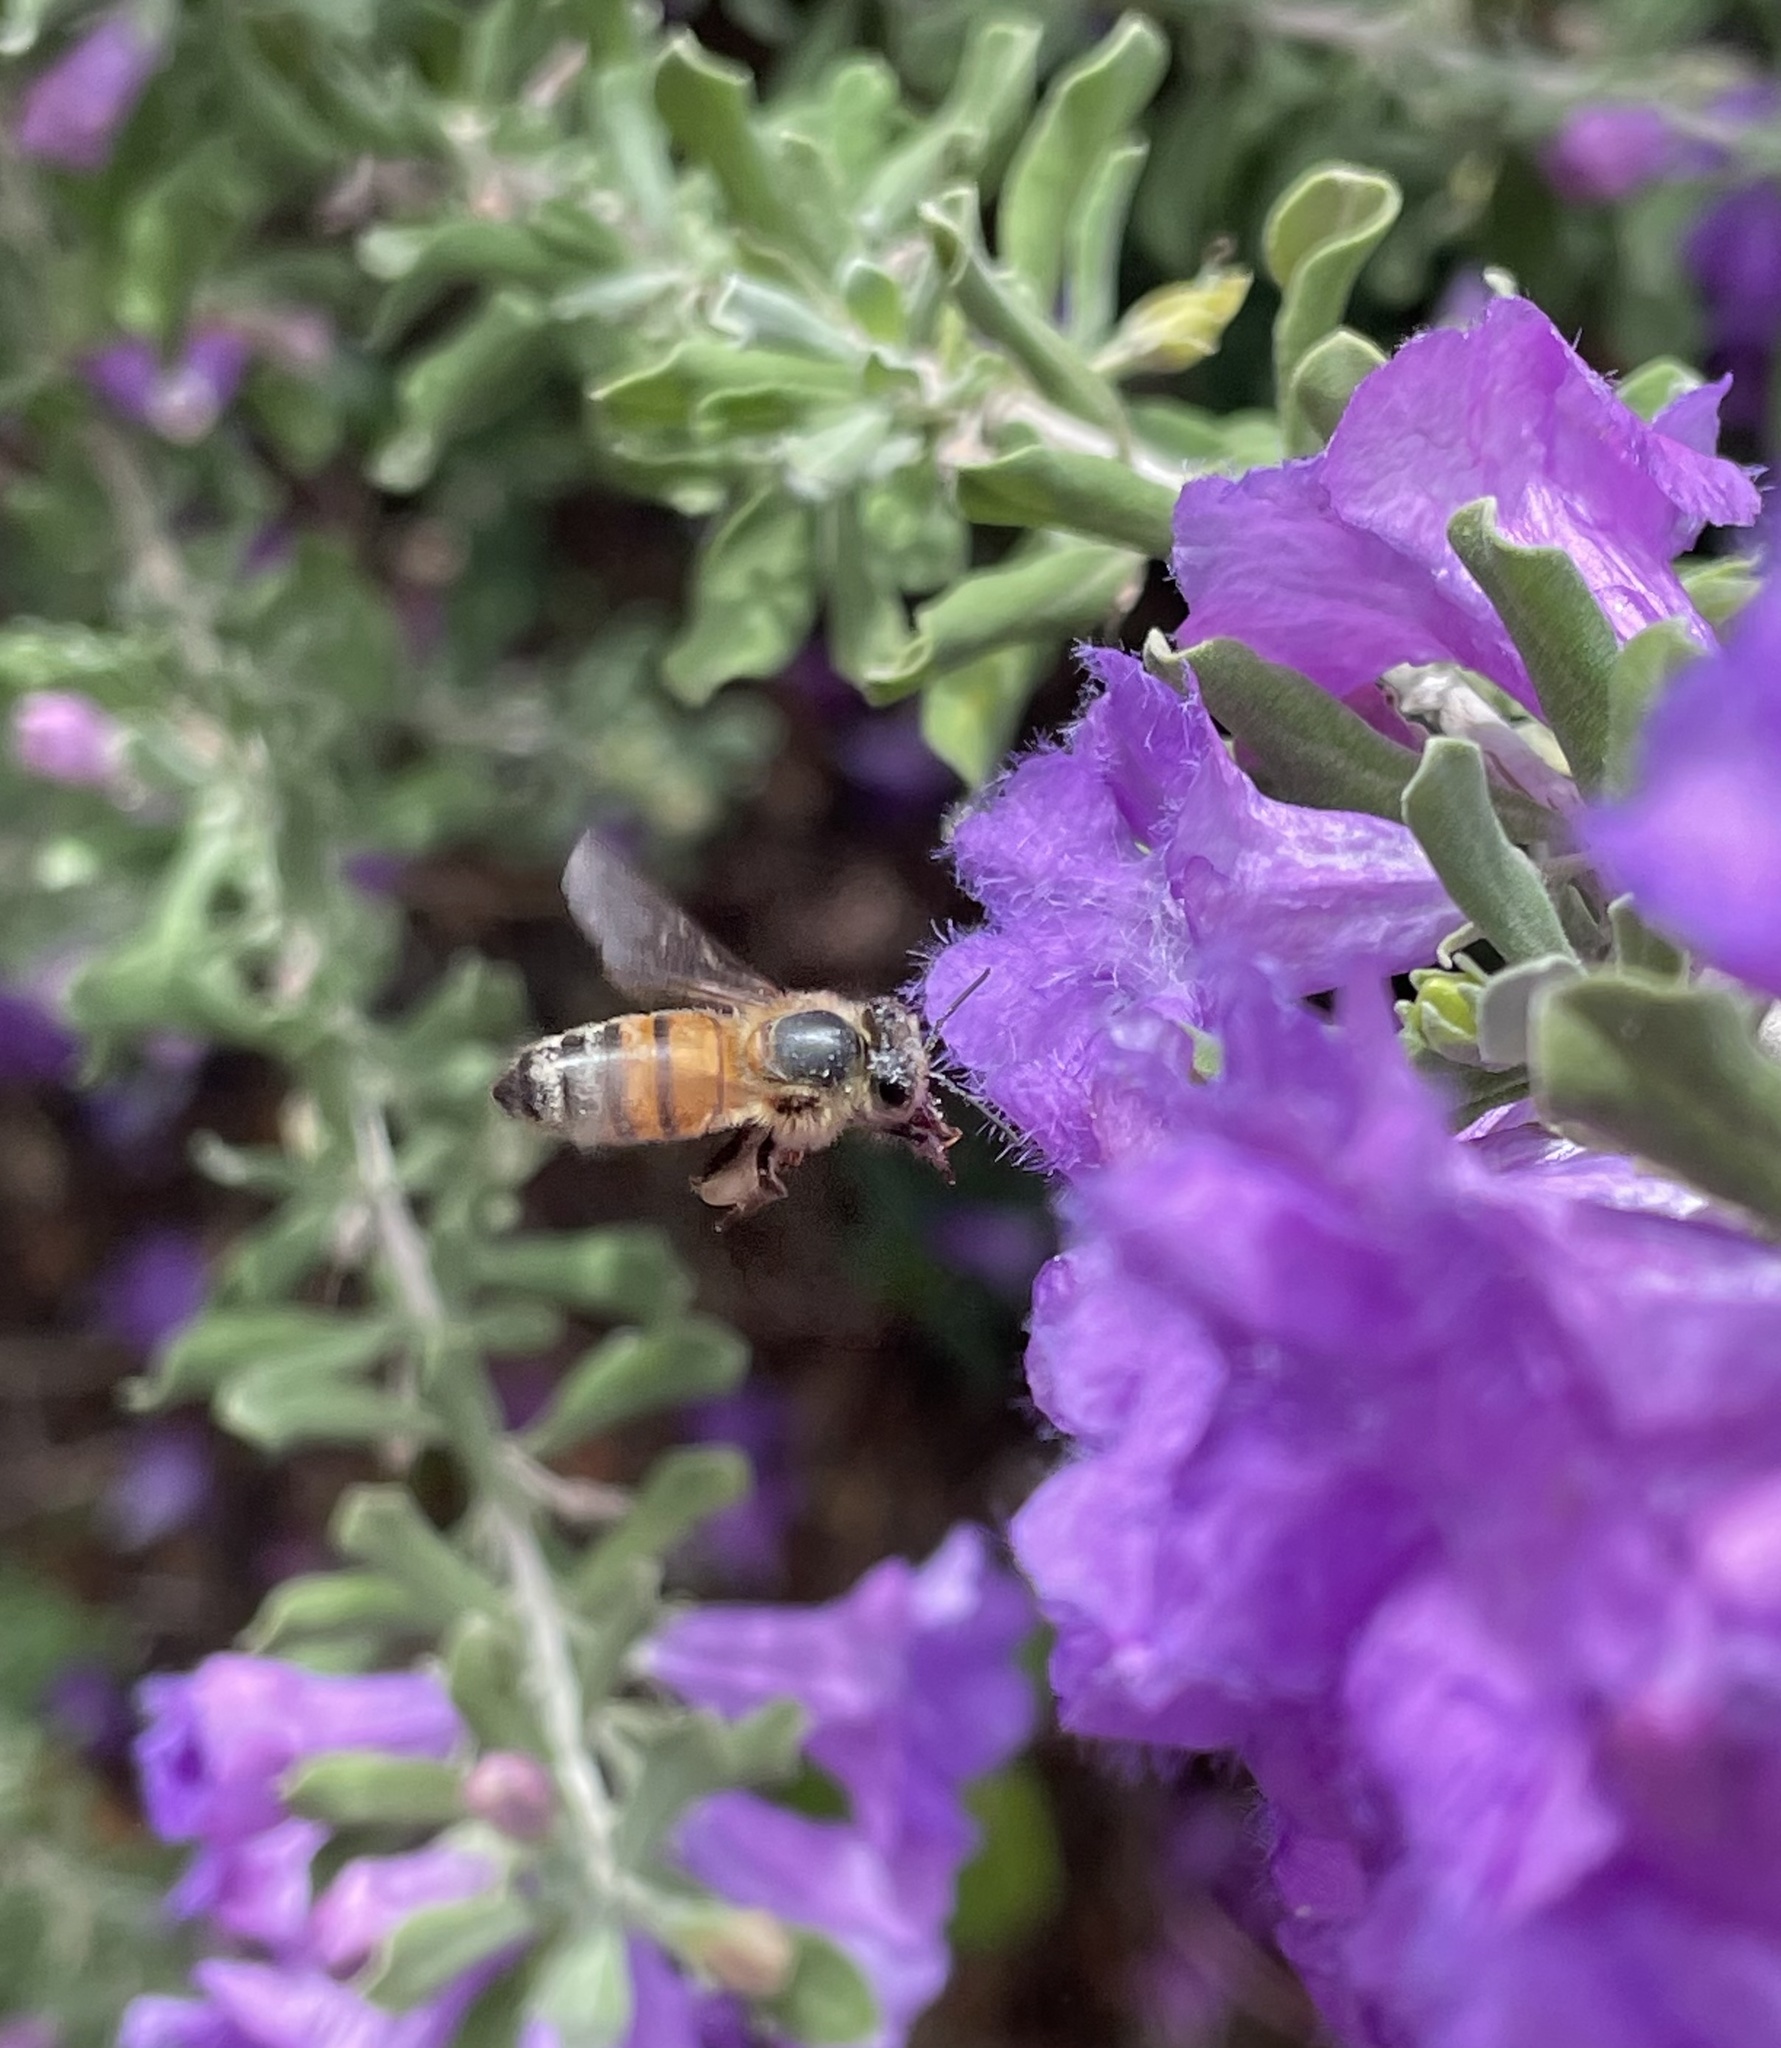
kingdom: Animalia
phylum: Arthropoda
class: Insecta
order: Hymenoptera
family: Apidae
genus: Apis
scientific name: Apis mellifera
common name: Honey bee
